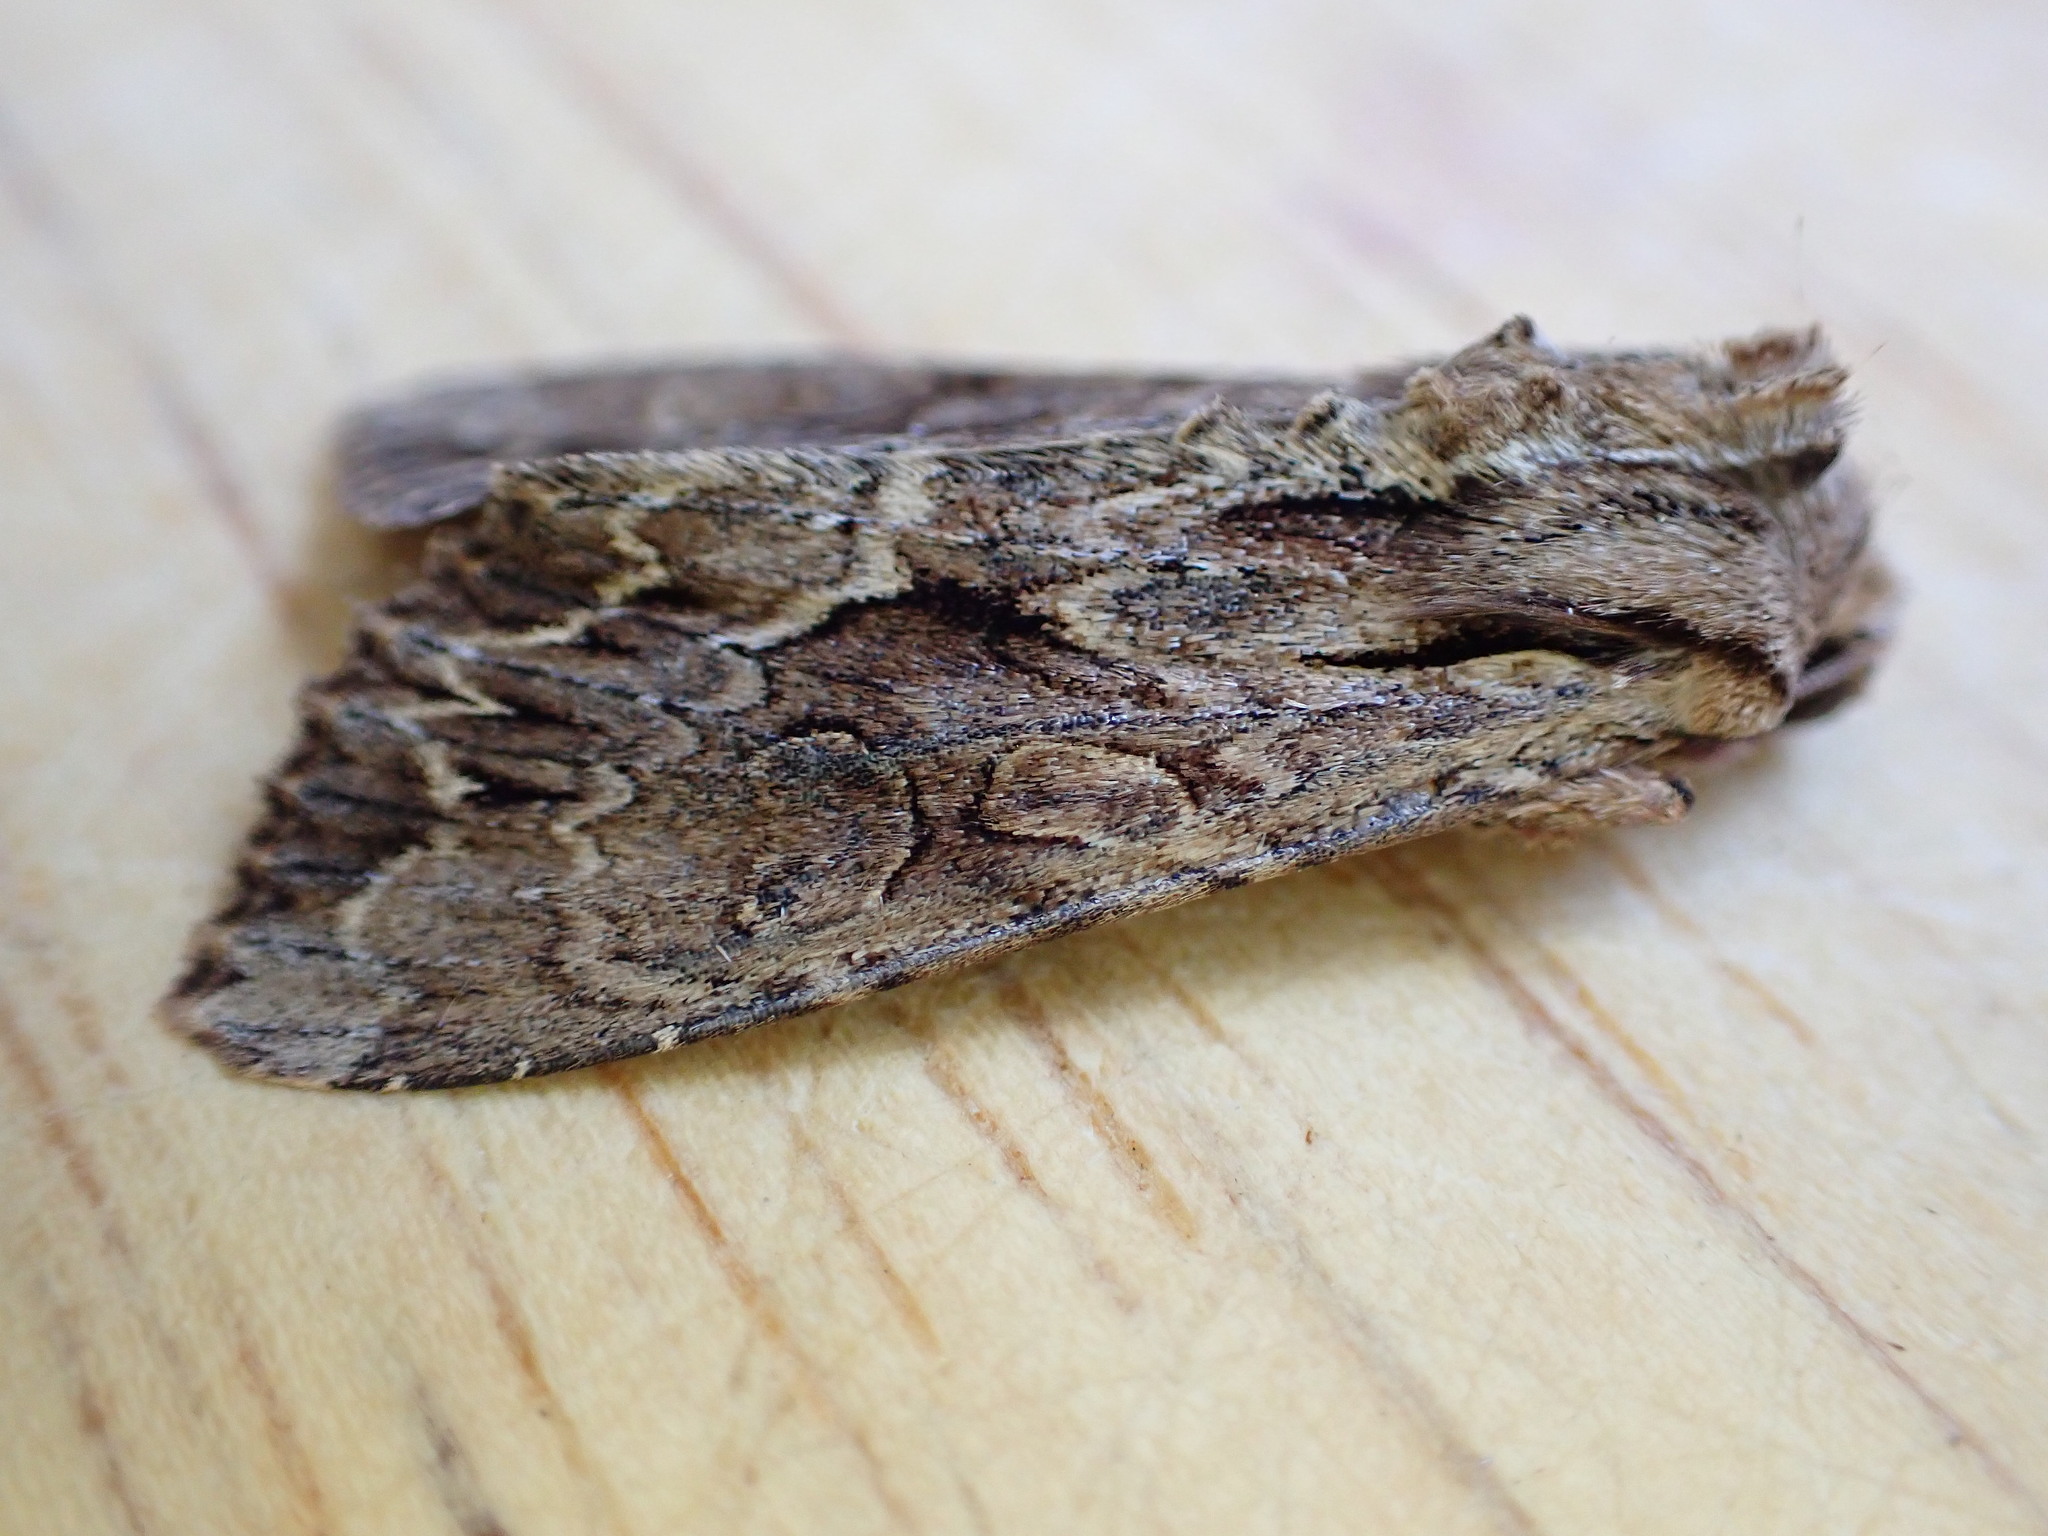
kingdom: Animalia
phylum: Arthropoda
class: Insecta
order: Lepidoptera
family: Noctuidae
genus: Apamea
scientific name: Apamea monoglypha
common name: Dark arches
